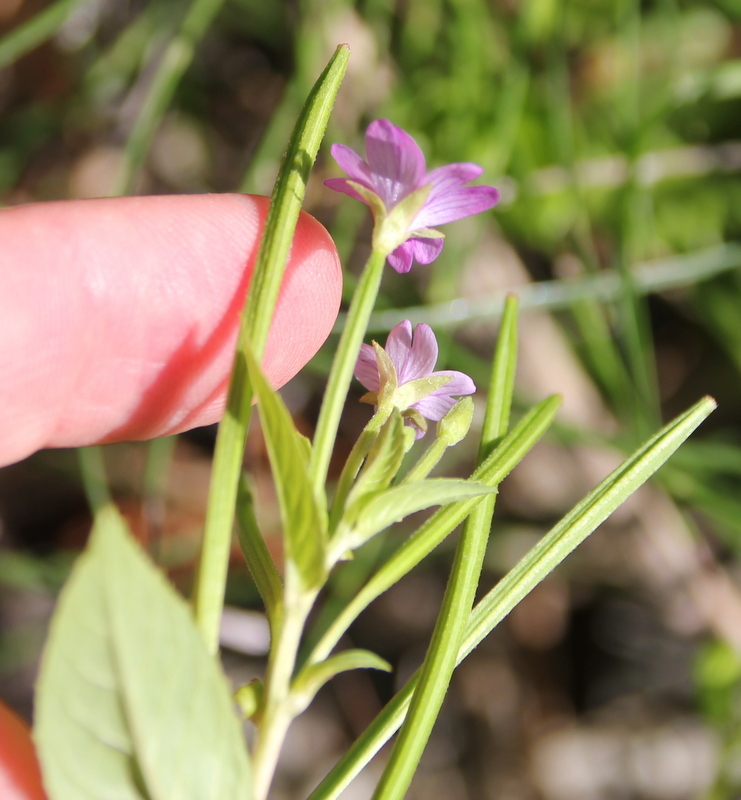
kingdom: Plantae
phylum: Tracheophyta
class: Magnoliopsida
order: Myrtales
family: Onagraceae
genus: Epilobium
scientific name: Epilobium ciliatum
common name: American willowherb
